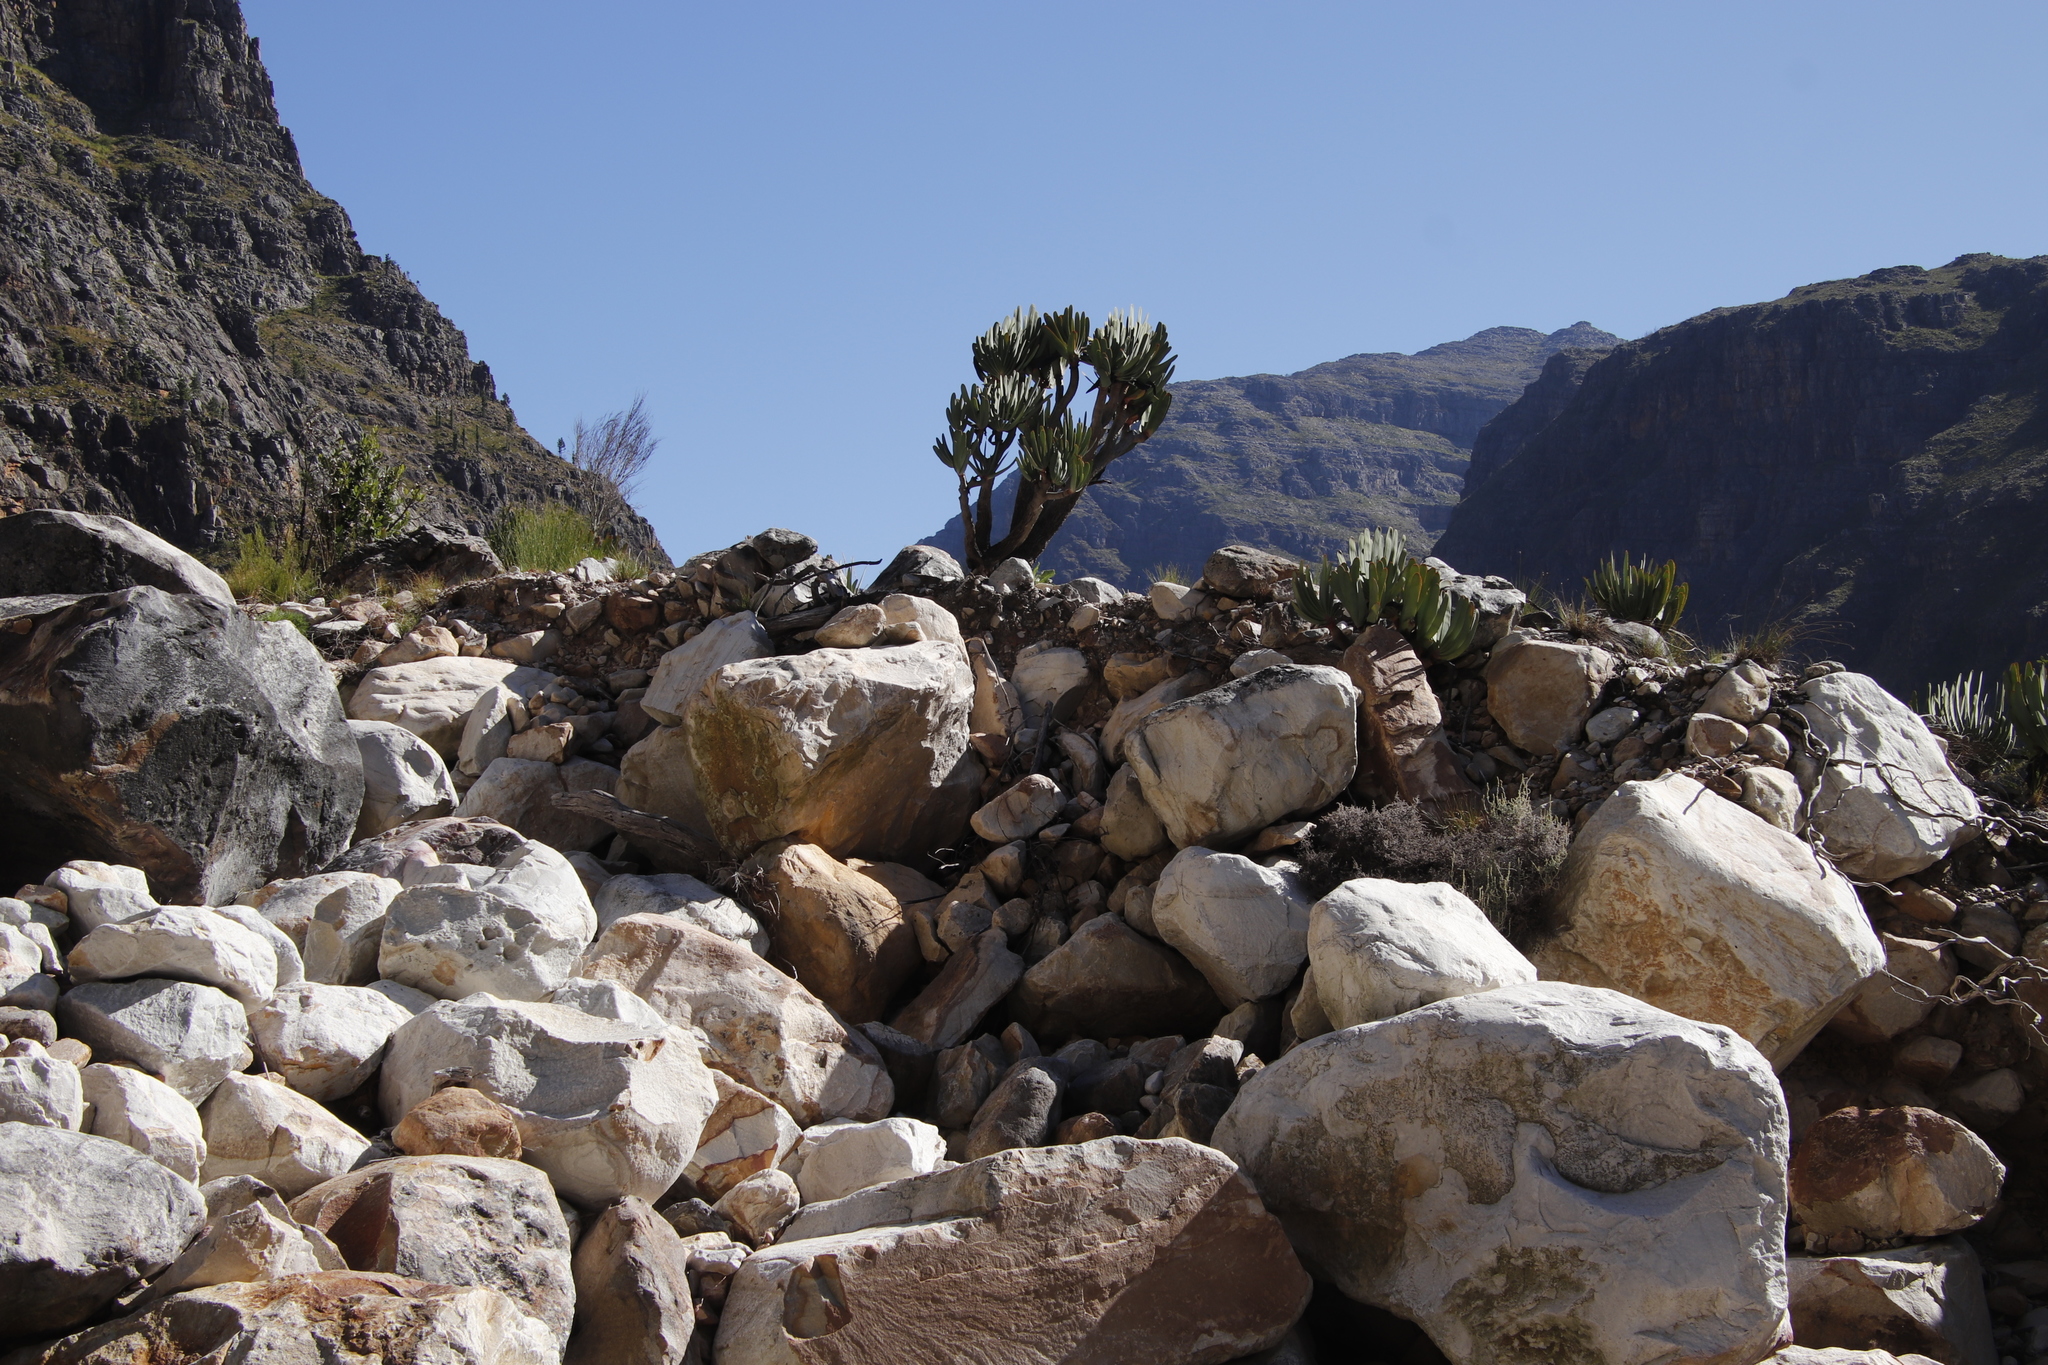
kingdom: Plantae
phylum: Tracheophyta
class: Liliopsida
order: Asparagales
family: Asphodelaceae
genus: Kumara
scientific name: Kumara plicatilis
